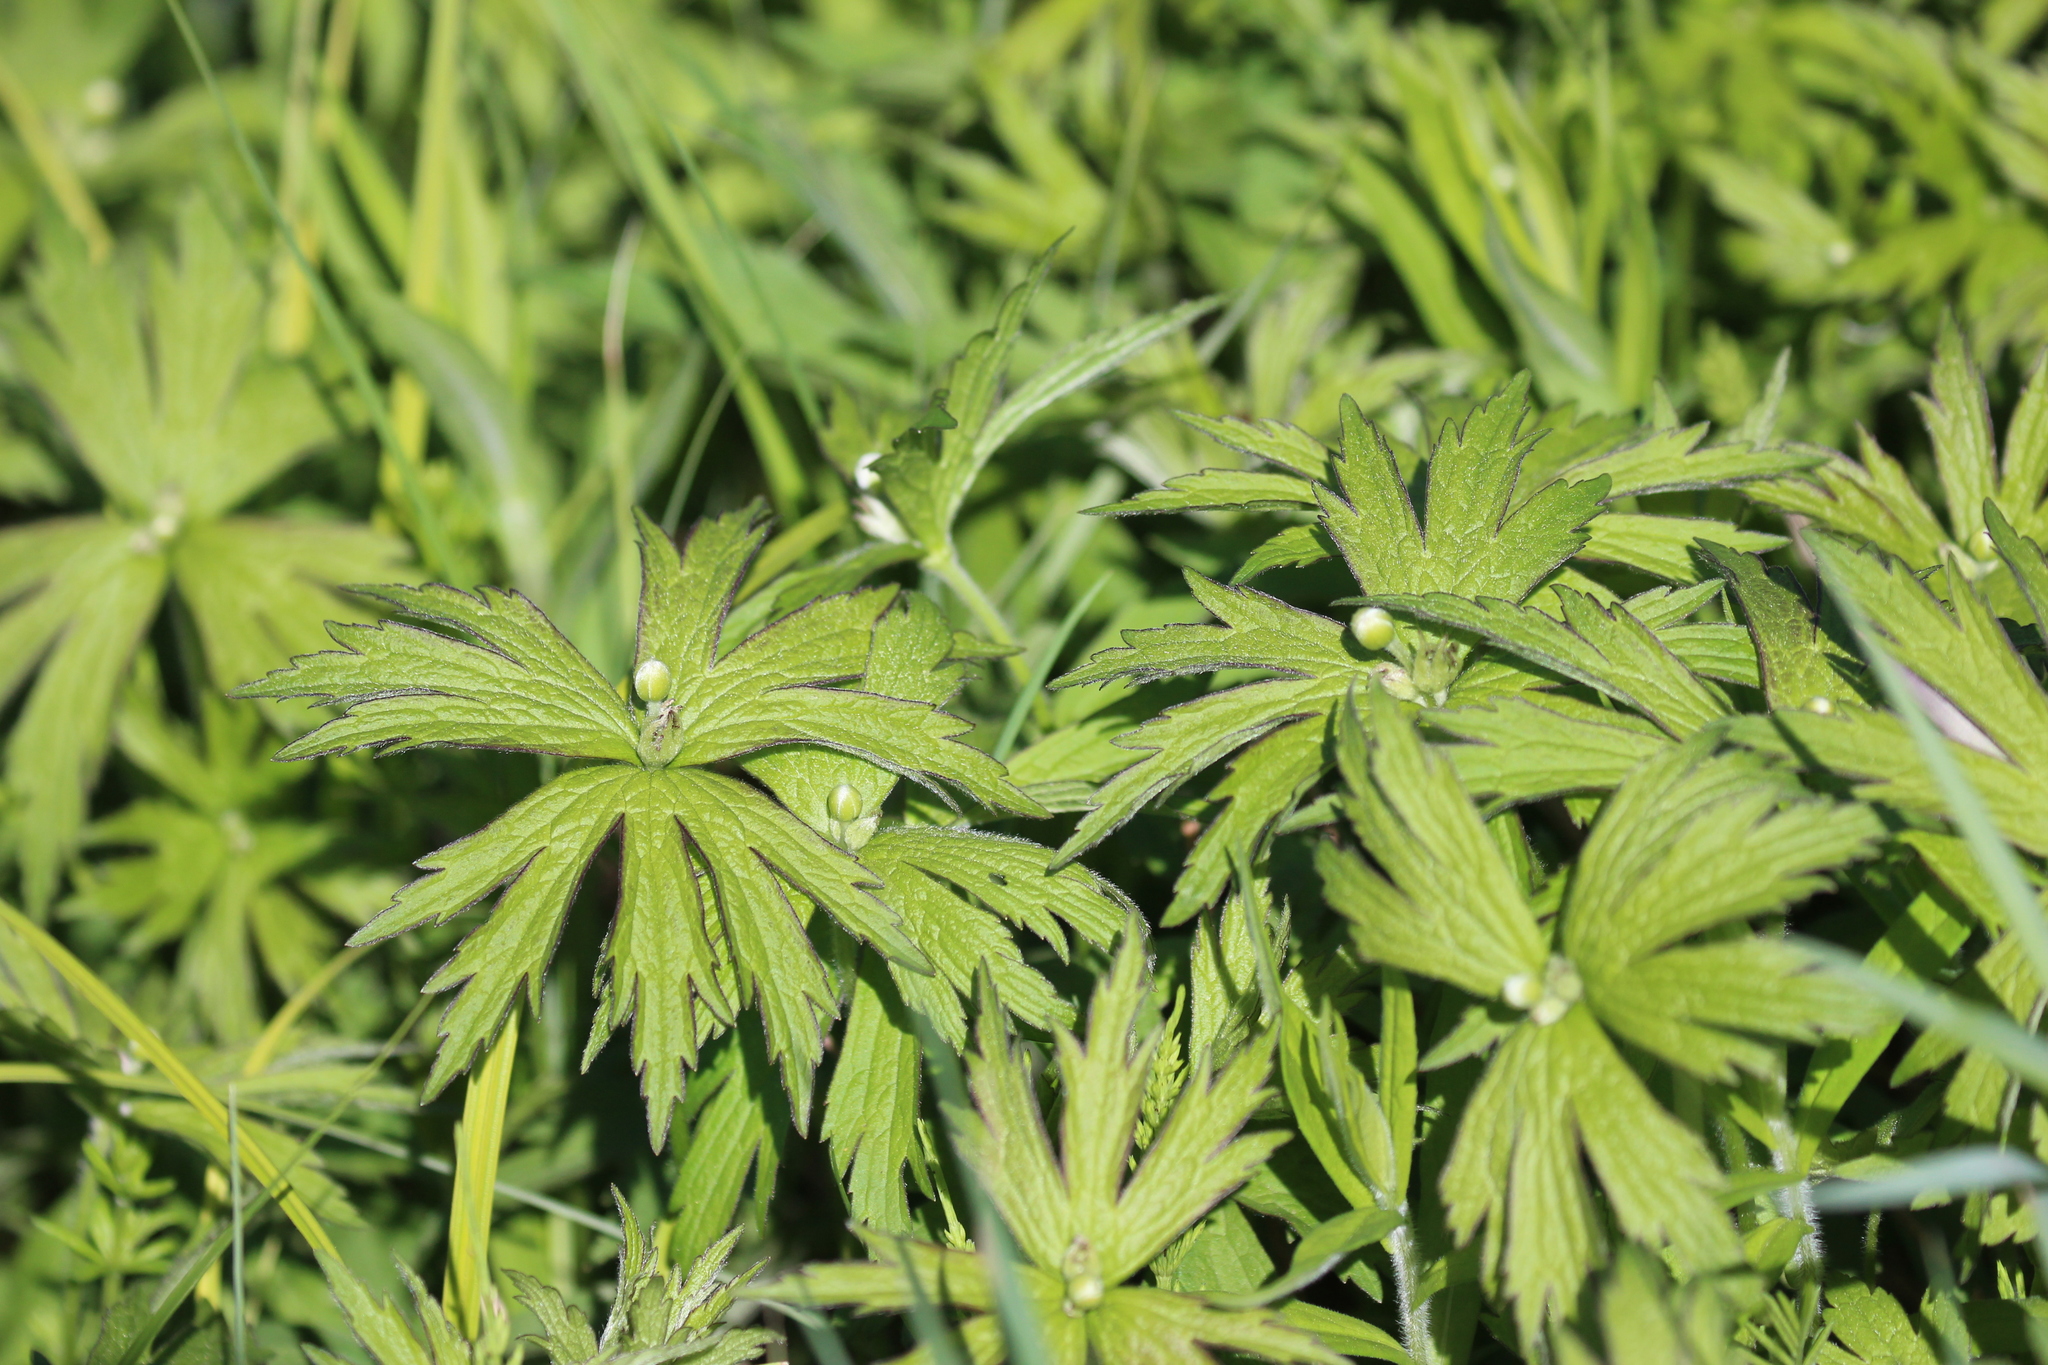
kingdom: Plantae
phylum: Tracheophyta
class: Magnoliopsida
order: Ranunculales
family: Ranunculaceae
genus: Anemonastrum
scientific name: Anemonastrum canadense
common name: Canada anemone
